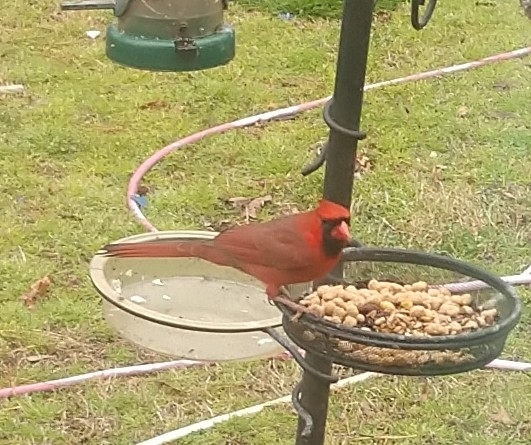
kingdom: Animalia
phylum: Chordata
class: Aves
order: Passeriformes
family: Cardinalidae
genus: Cardinalis
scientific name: Cardinalis cardinalis
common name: Northern cardinal
